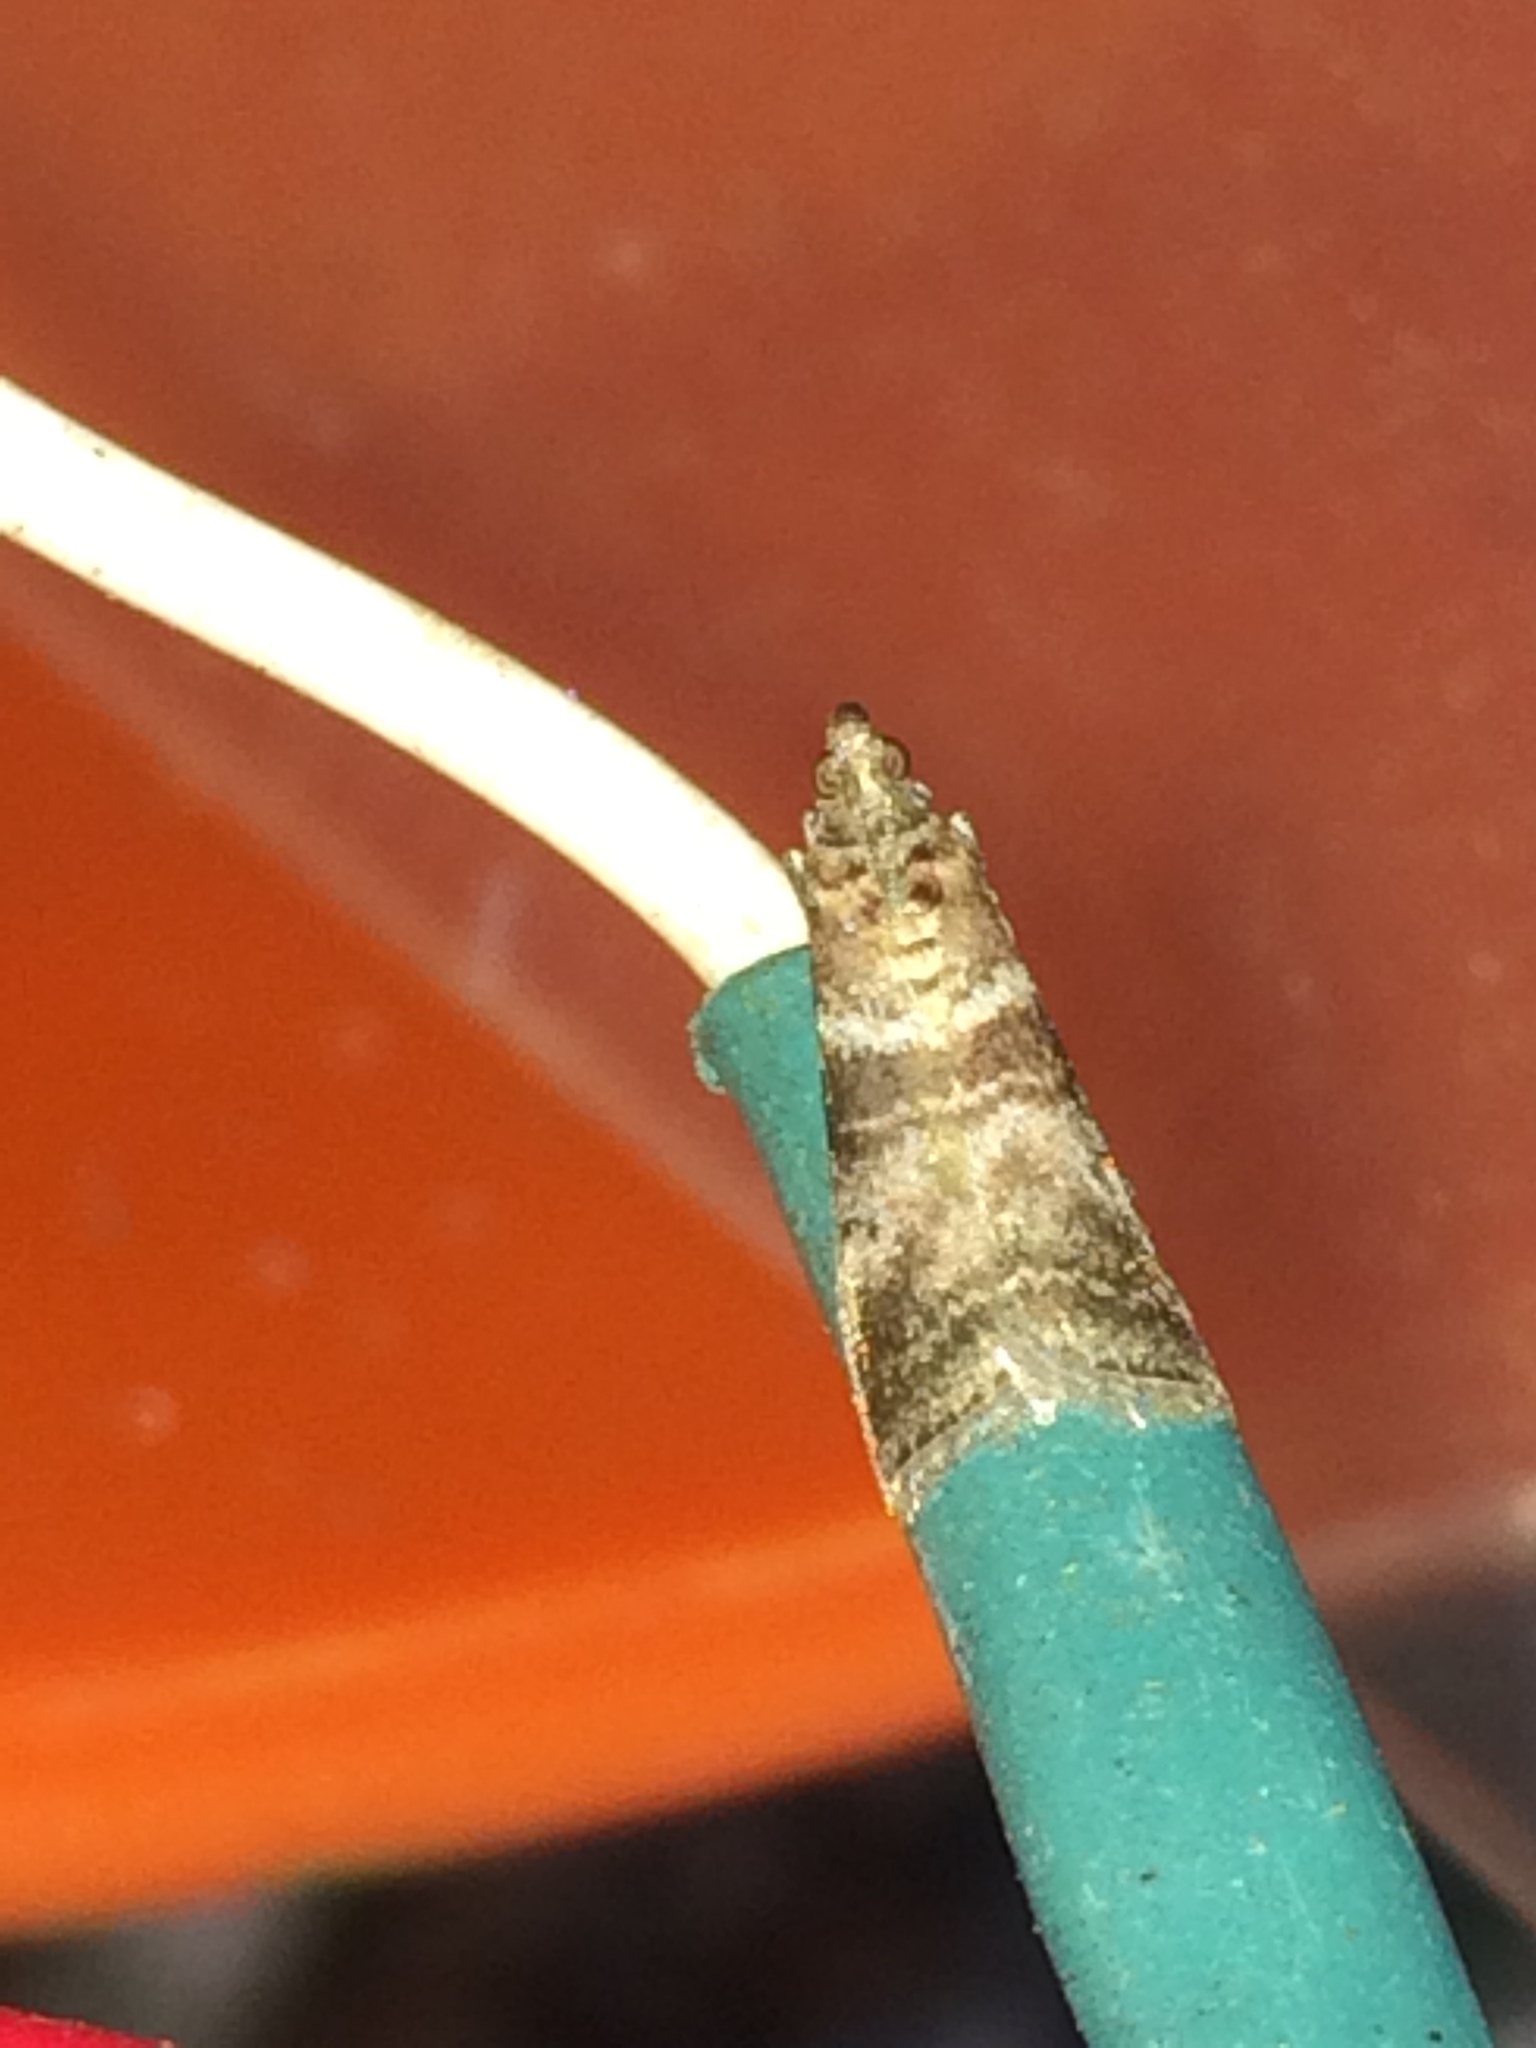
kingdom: Animalia
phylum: Arthropoda
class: Insecta
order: Lepidoptera
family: Pyralidae
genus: Sciota
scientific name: Sciota uvinella
